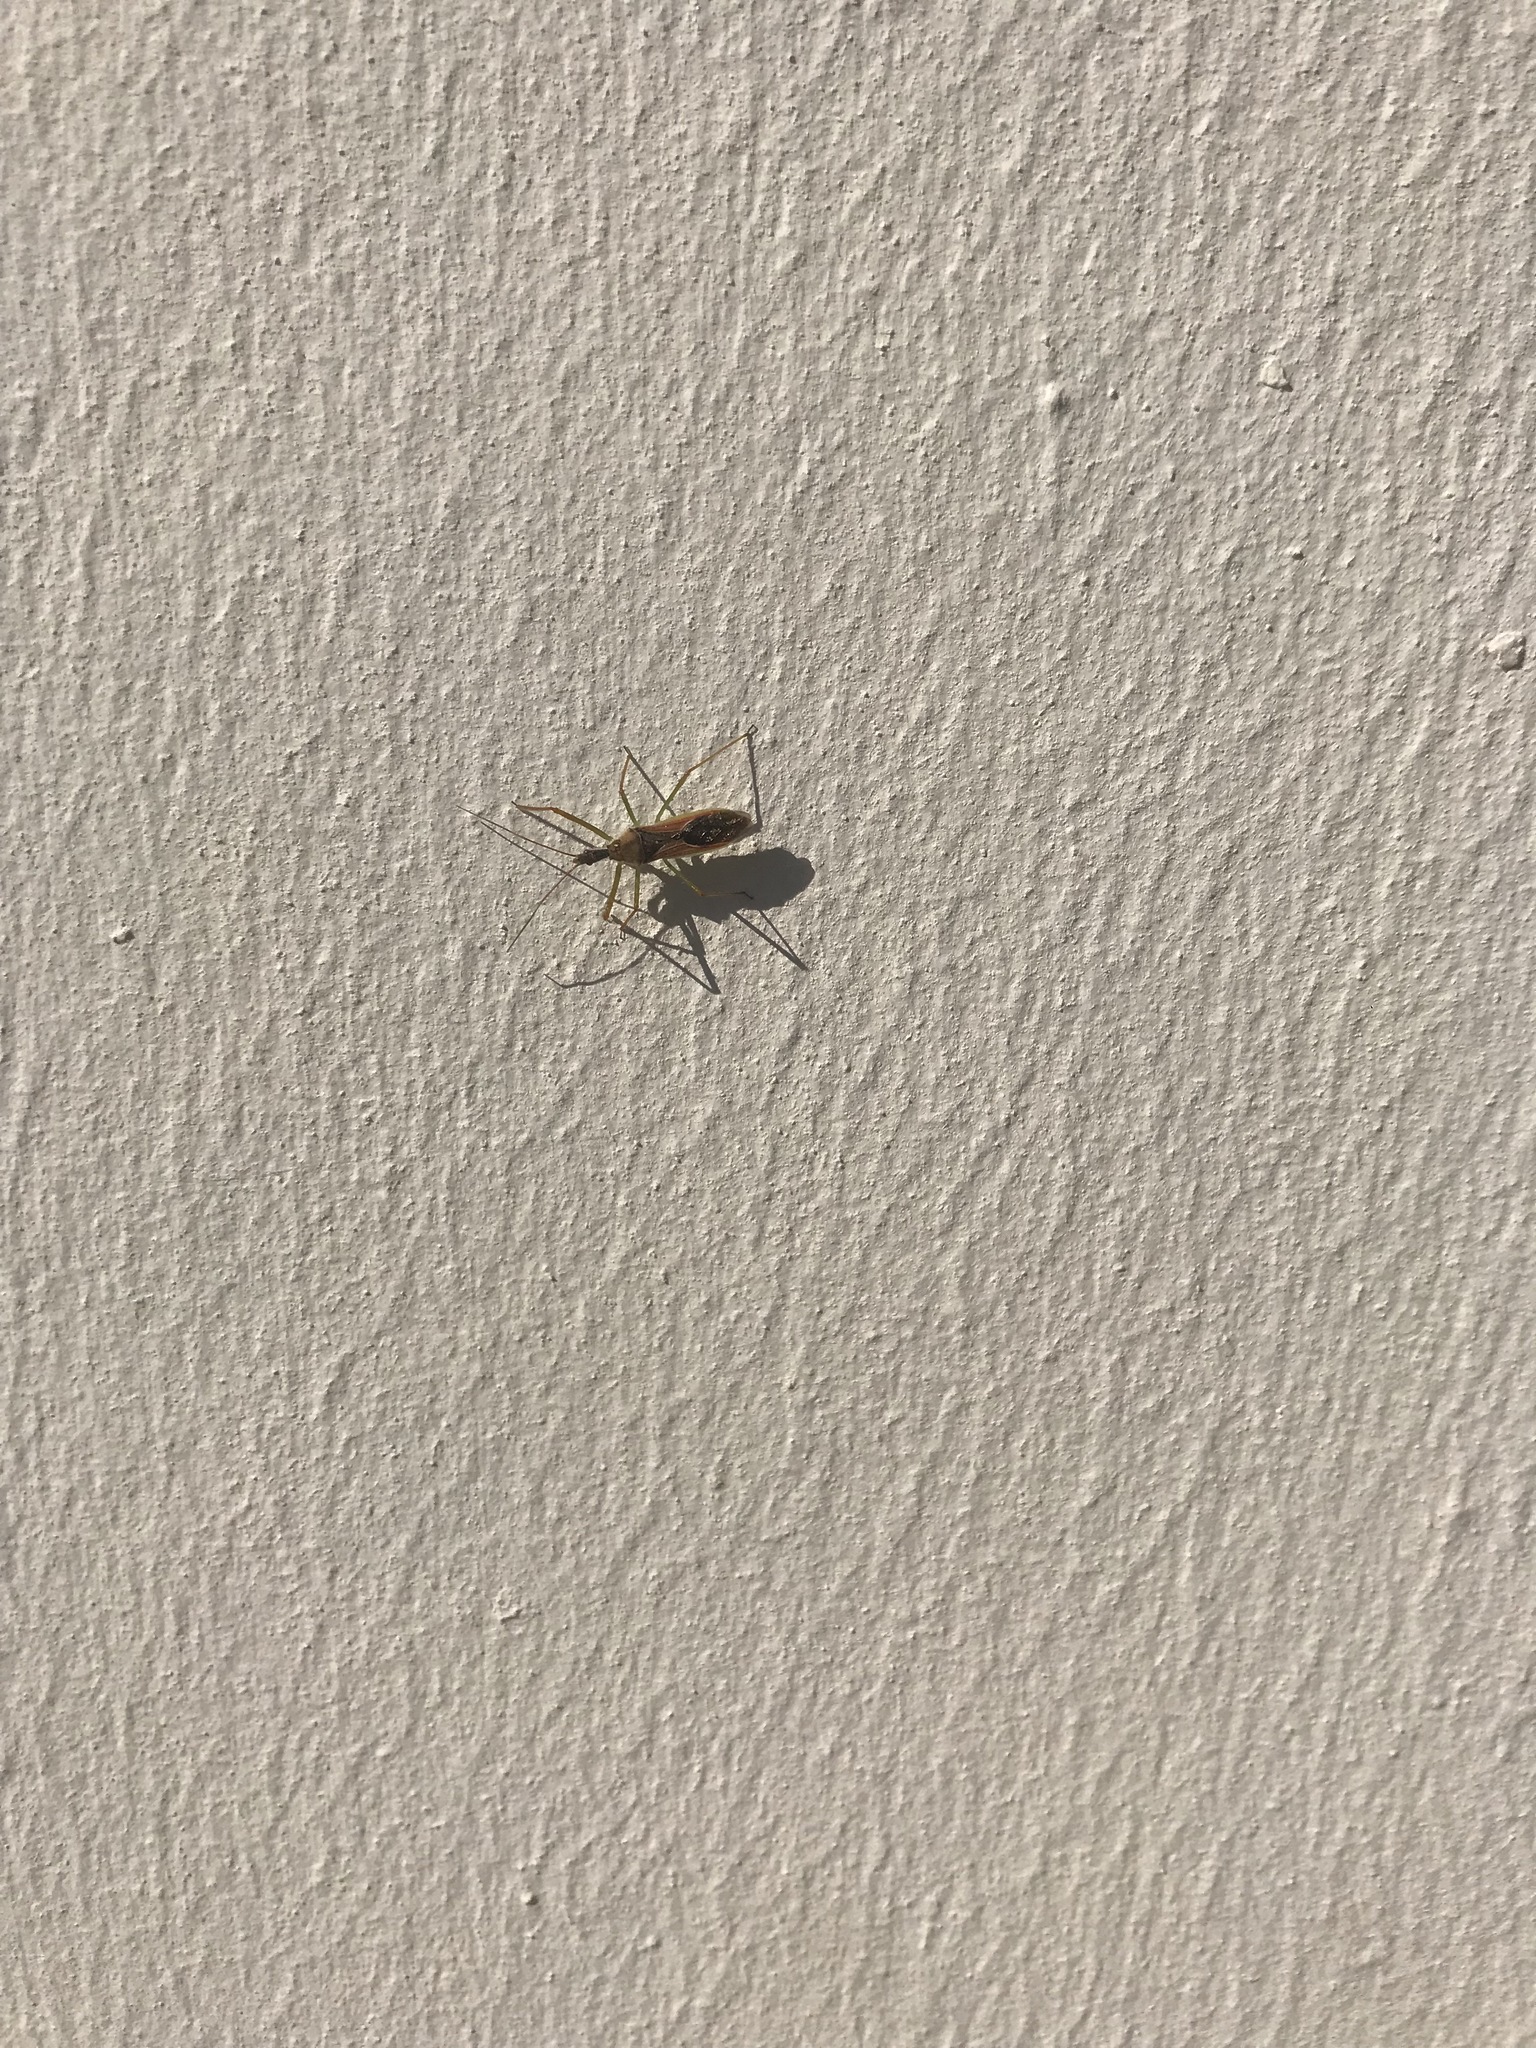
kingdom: Animalia
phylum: Arthropoda
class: Insecta
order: Hemiptera
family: Reduviidae
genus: Zelus
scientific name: Zelus renardii
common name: Assassin bug
